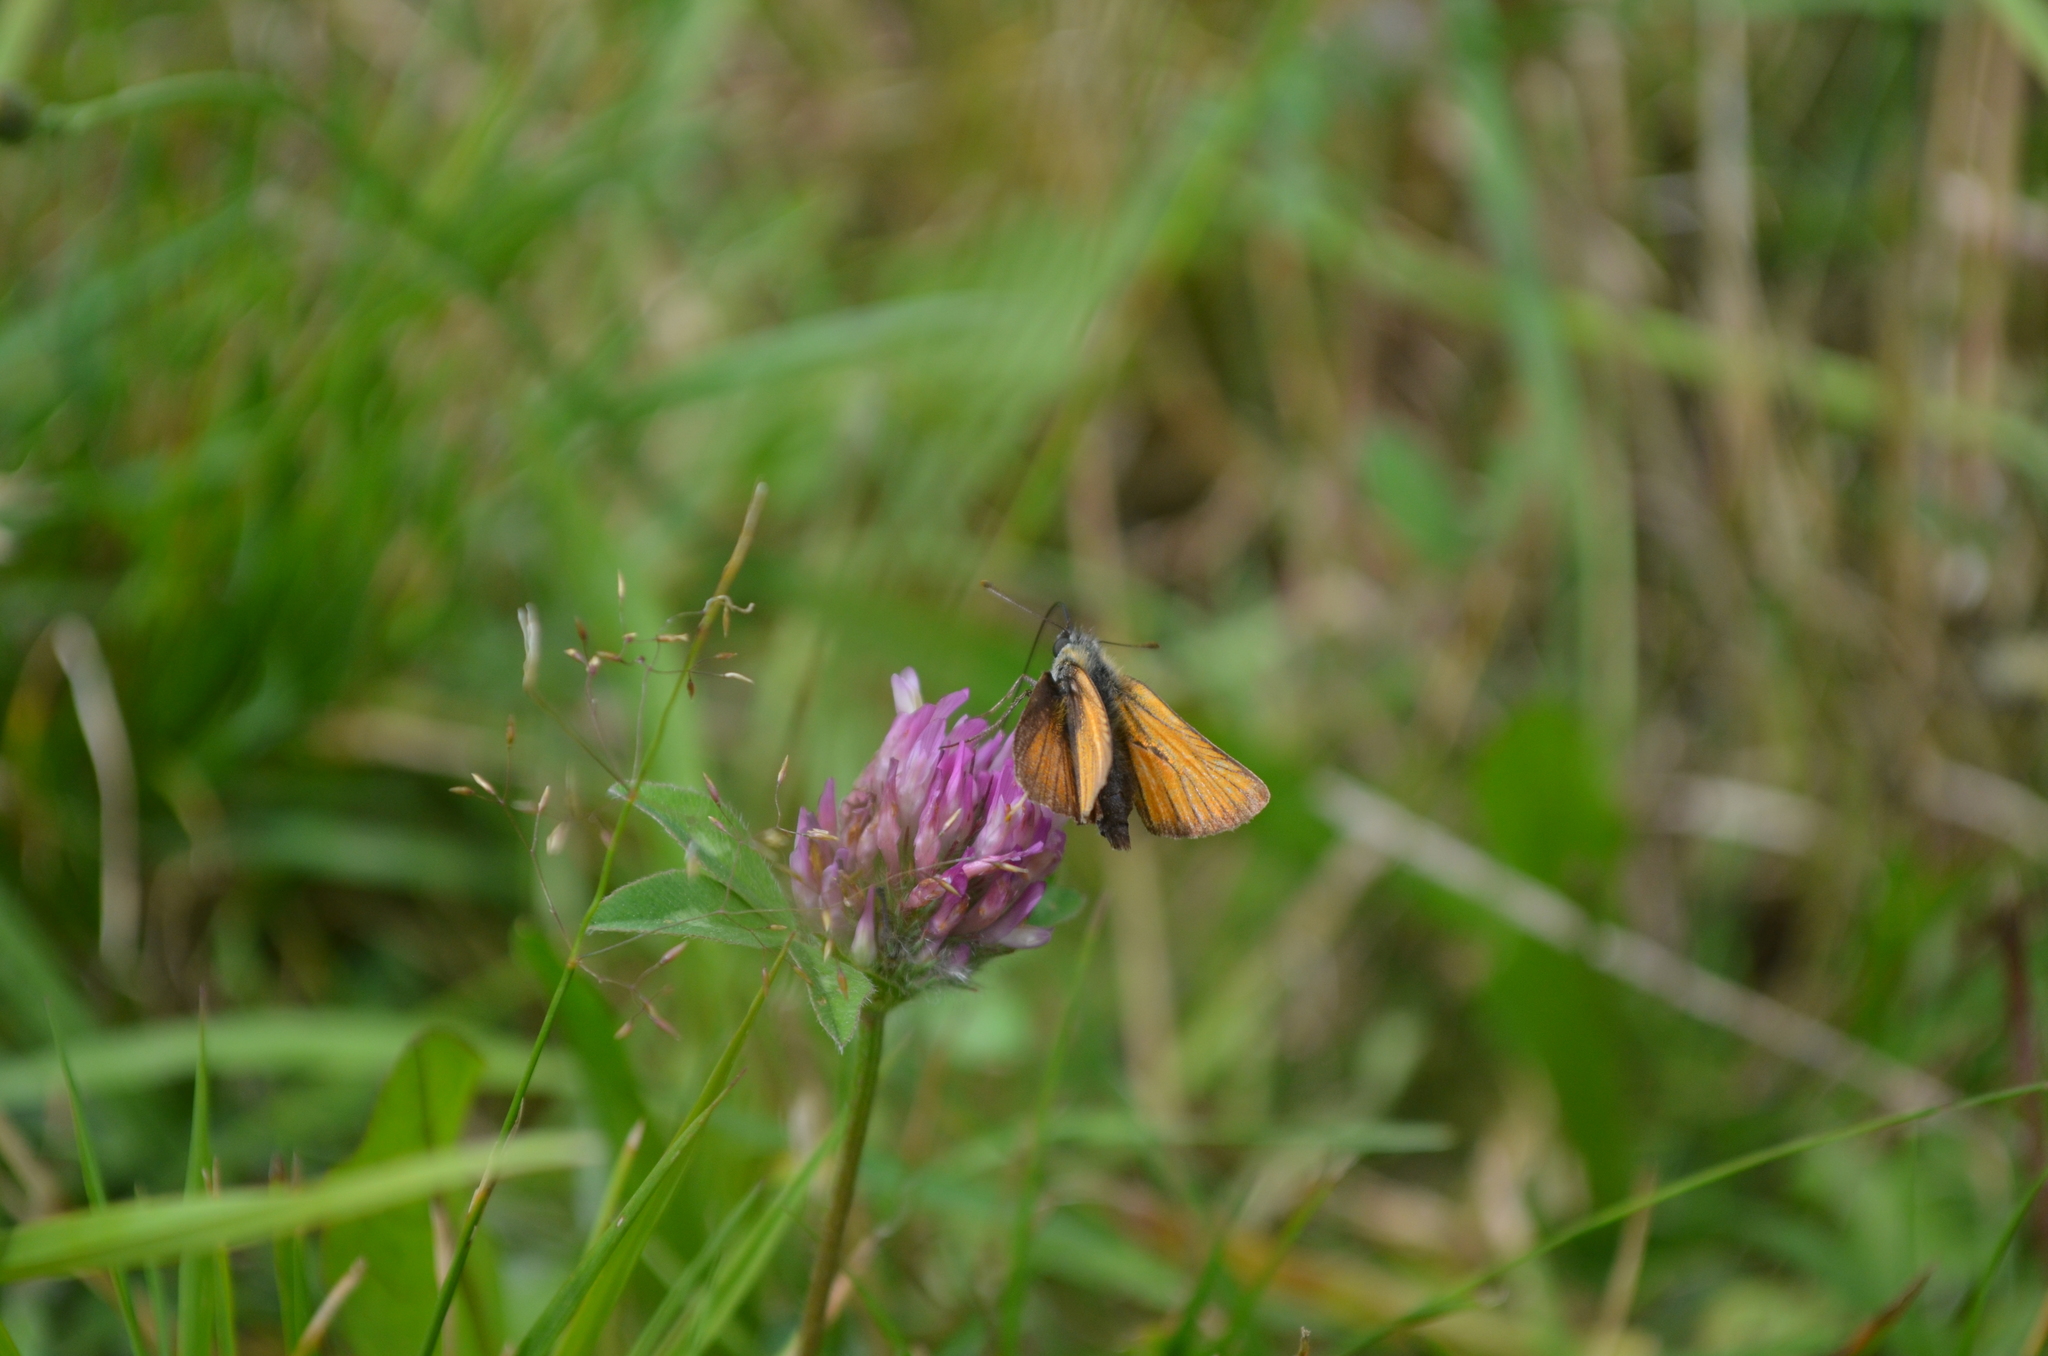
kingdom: Animalia
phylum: Arthropoda
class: Insecta
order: Lepidoptera
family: Hesperiidae
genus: Thymelicus
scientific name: Thymelicus sylvestris
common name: Small skipper
